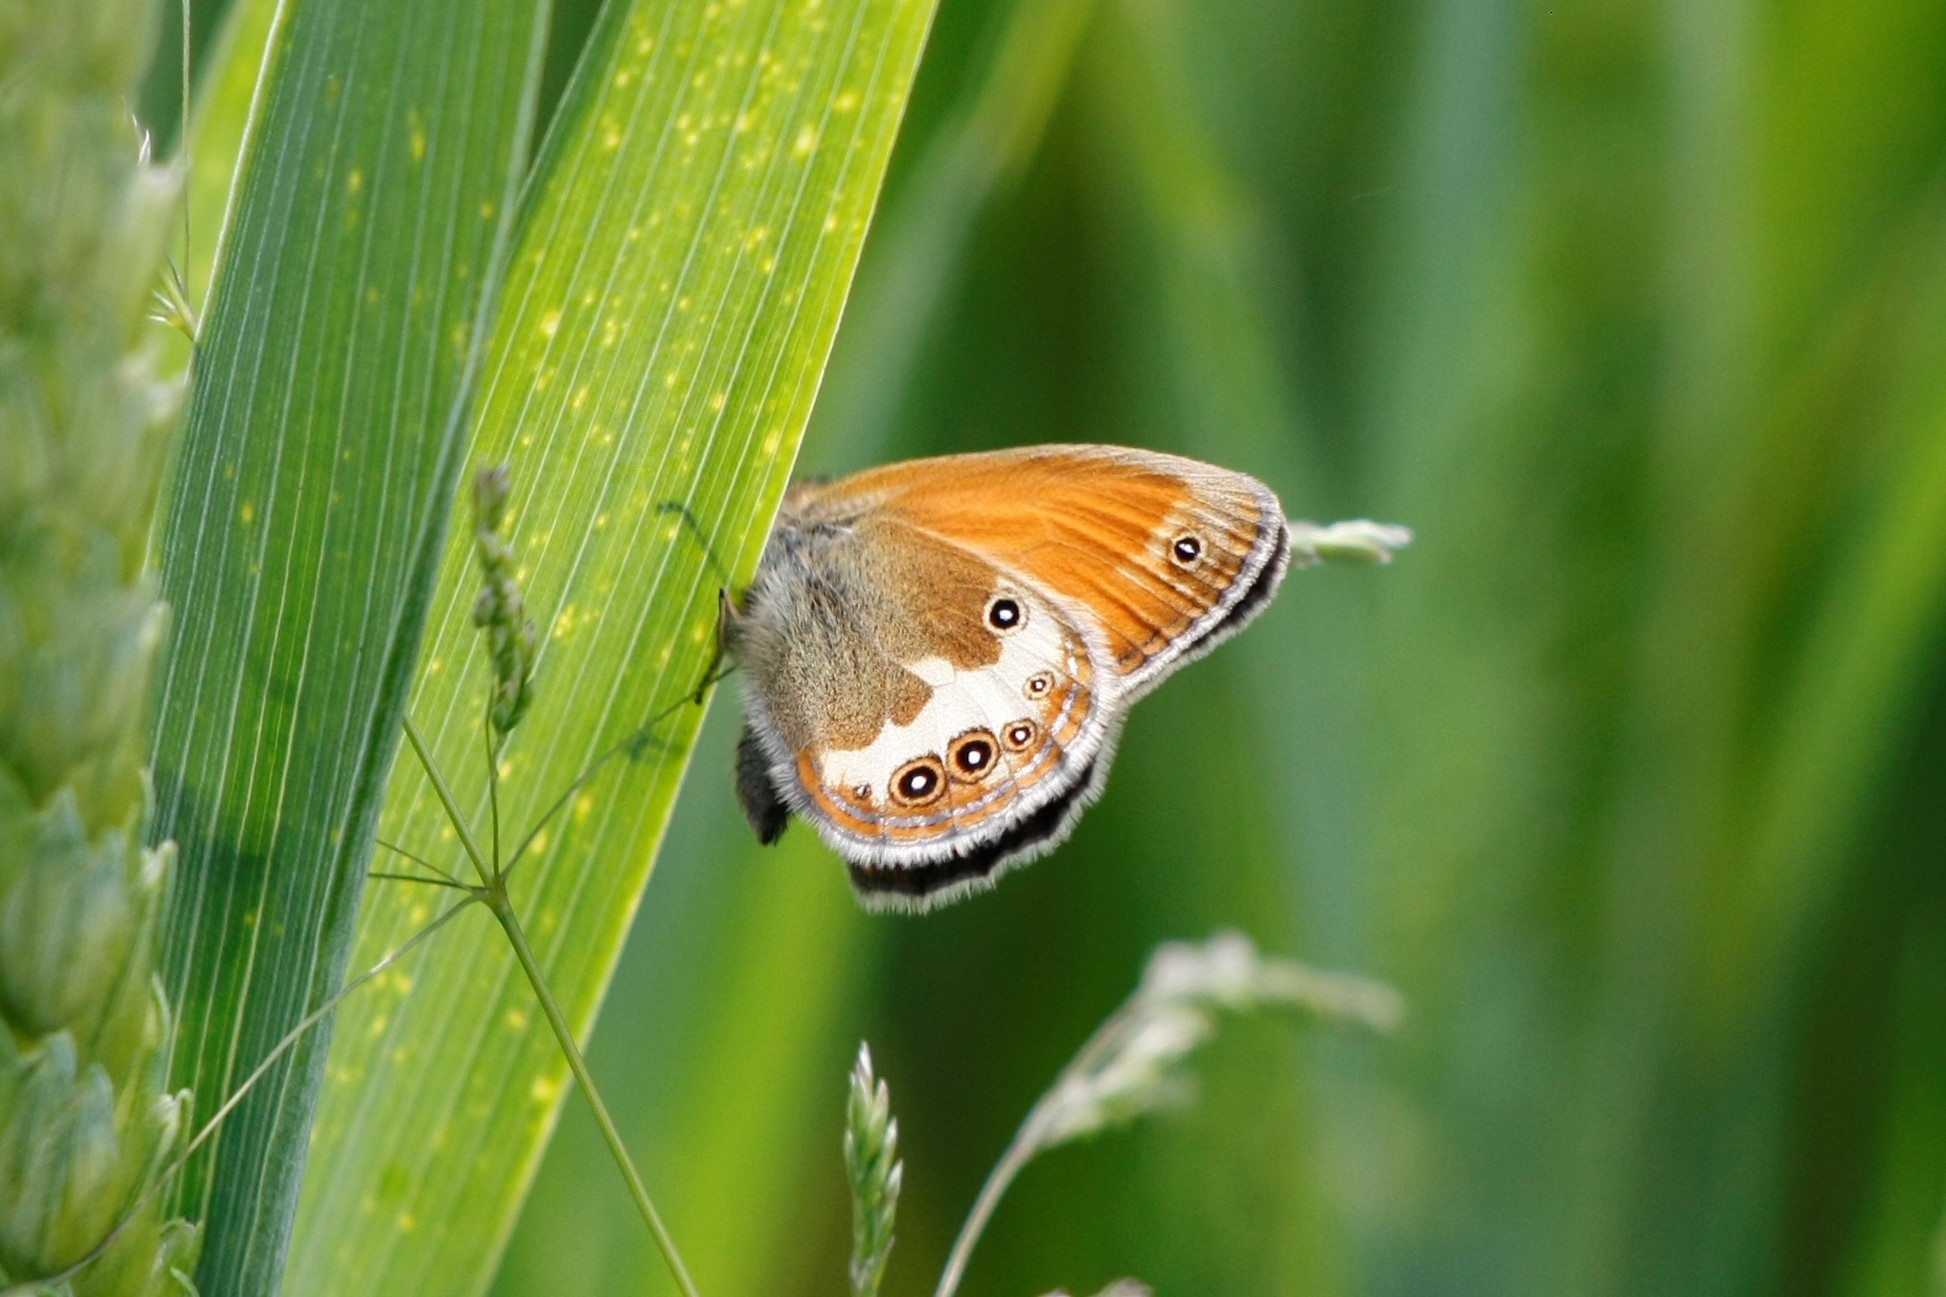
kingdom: Animalia
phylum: Arthropoda
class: Insecta
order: Lepidoptera
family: Nymphalidae
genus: Coenonympha
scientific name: Coenonympha arcania
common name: Pearly heath
